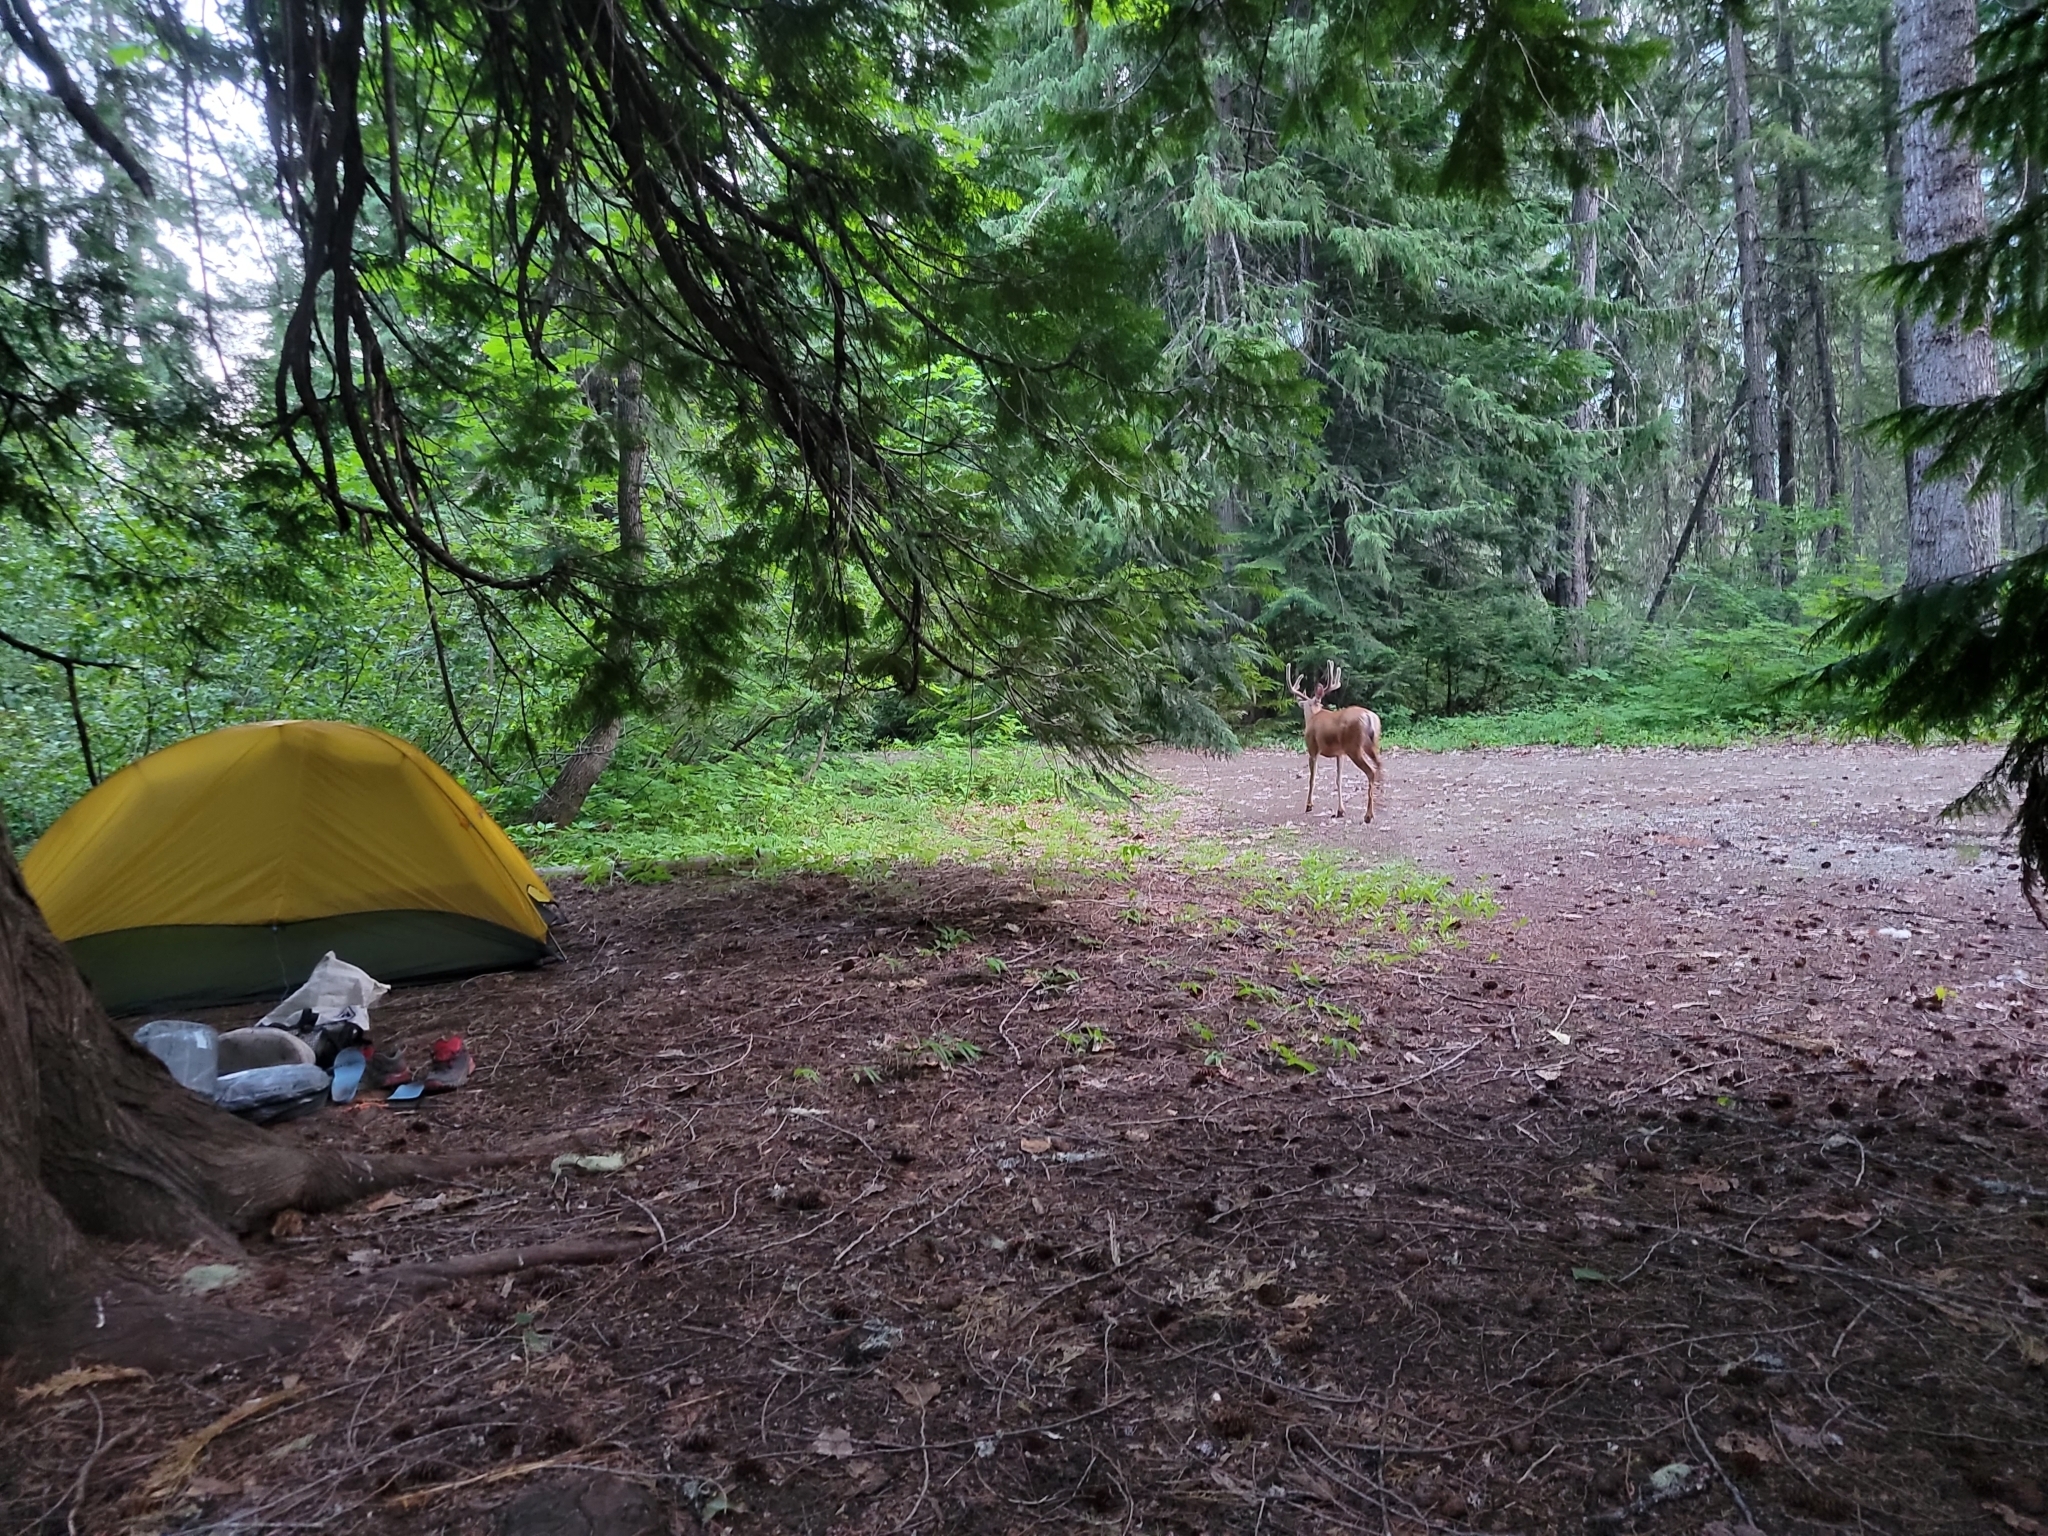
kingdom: Animalia
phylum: Chordata
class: Mammalia
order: Artiodactyla
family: Cervidae
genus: Odocoileus
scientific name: Odocoileus hemionus
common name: Mule deer
